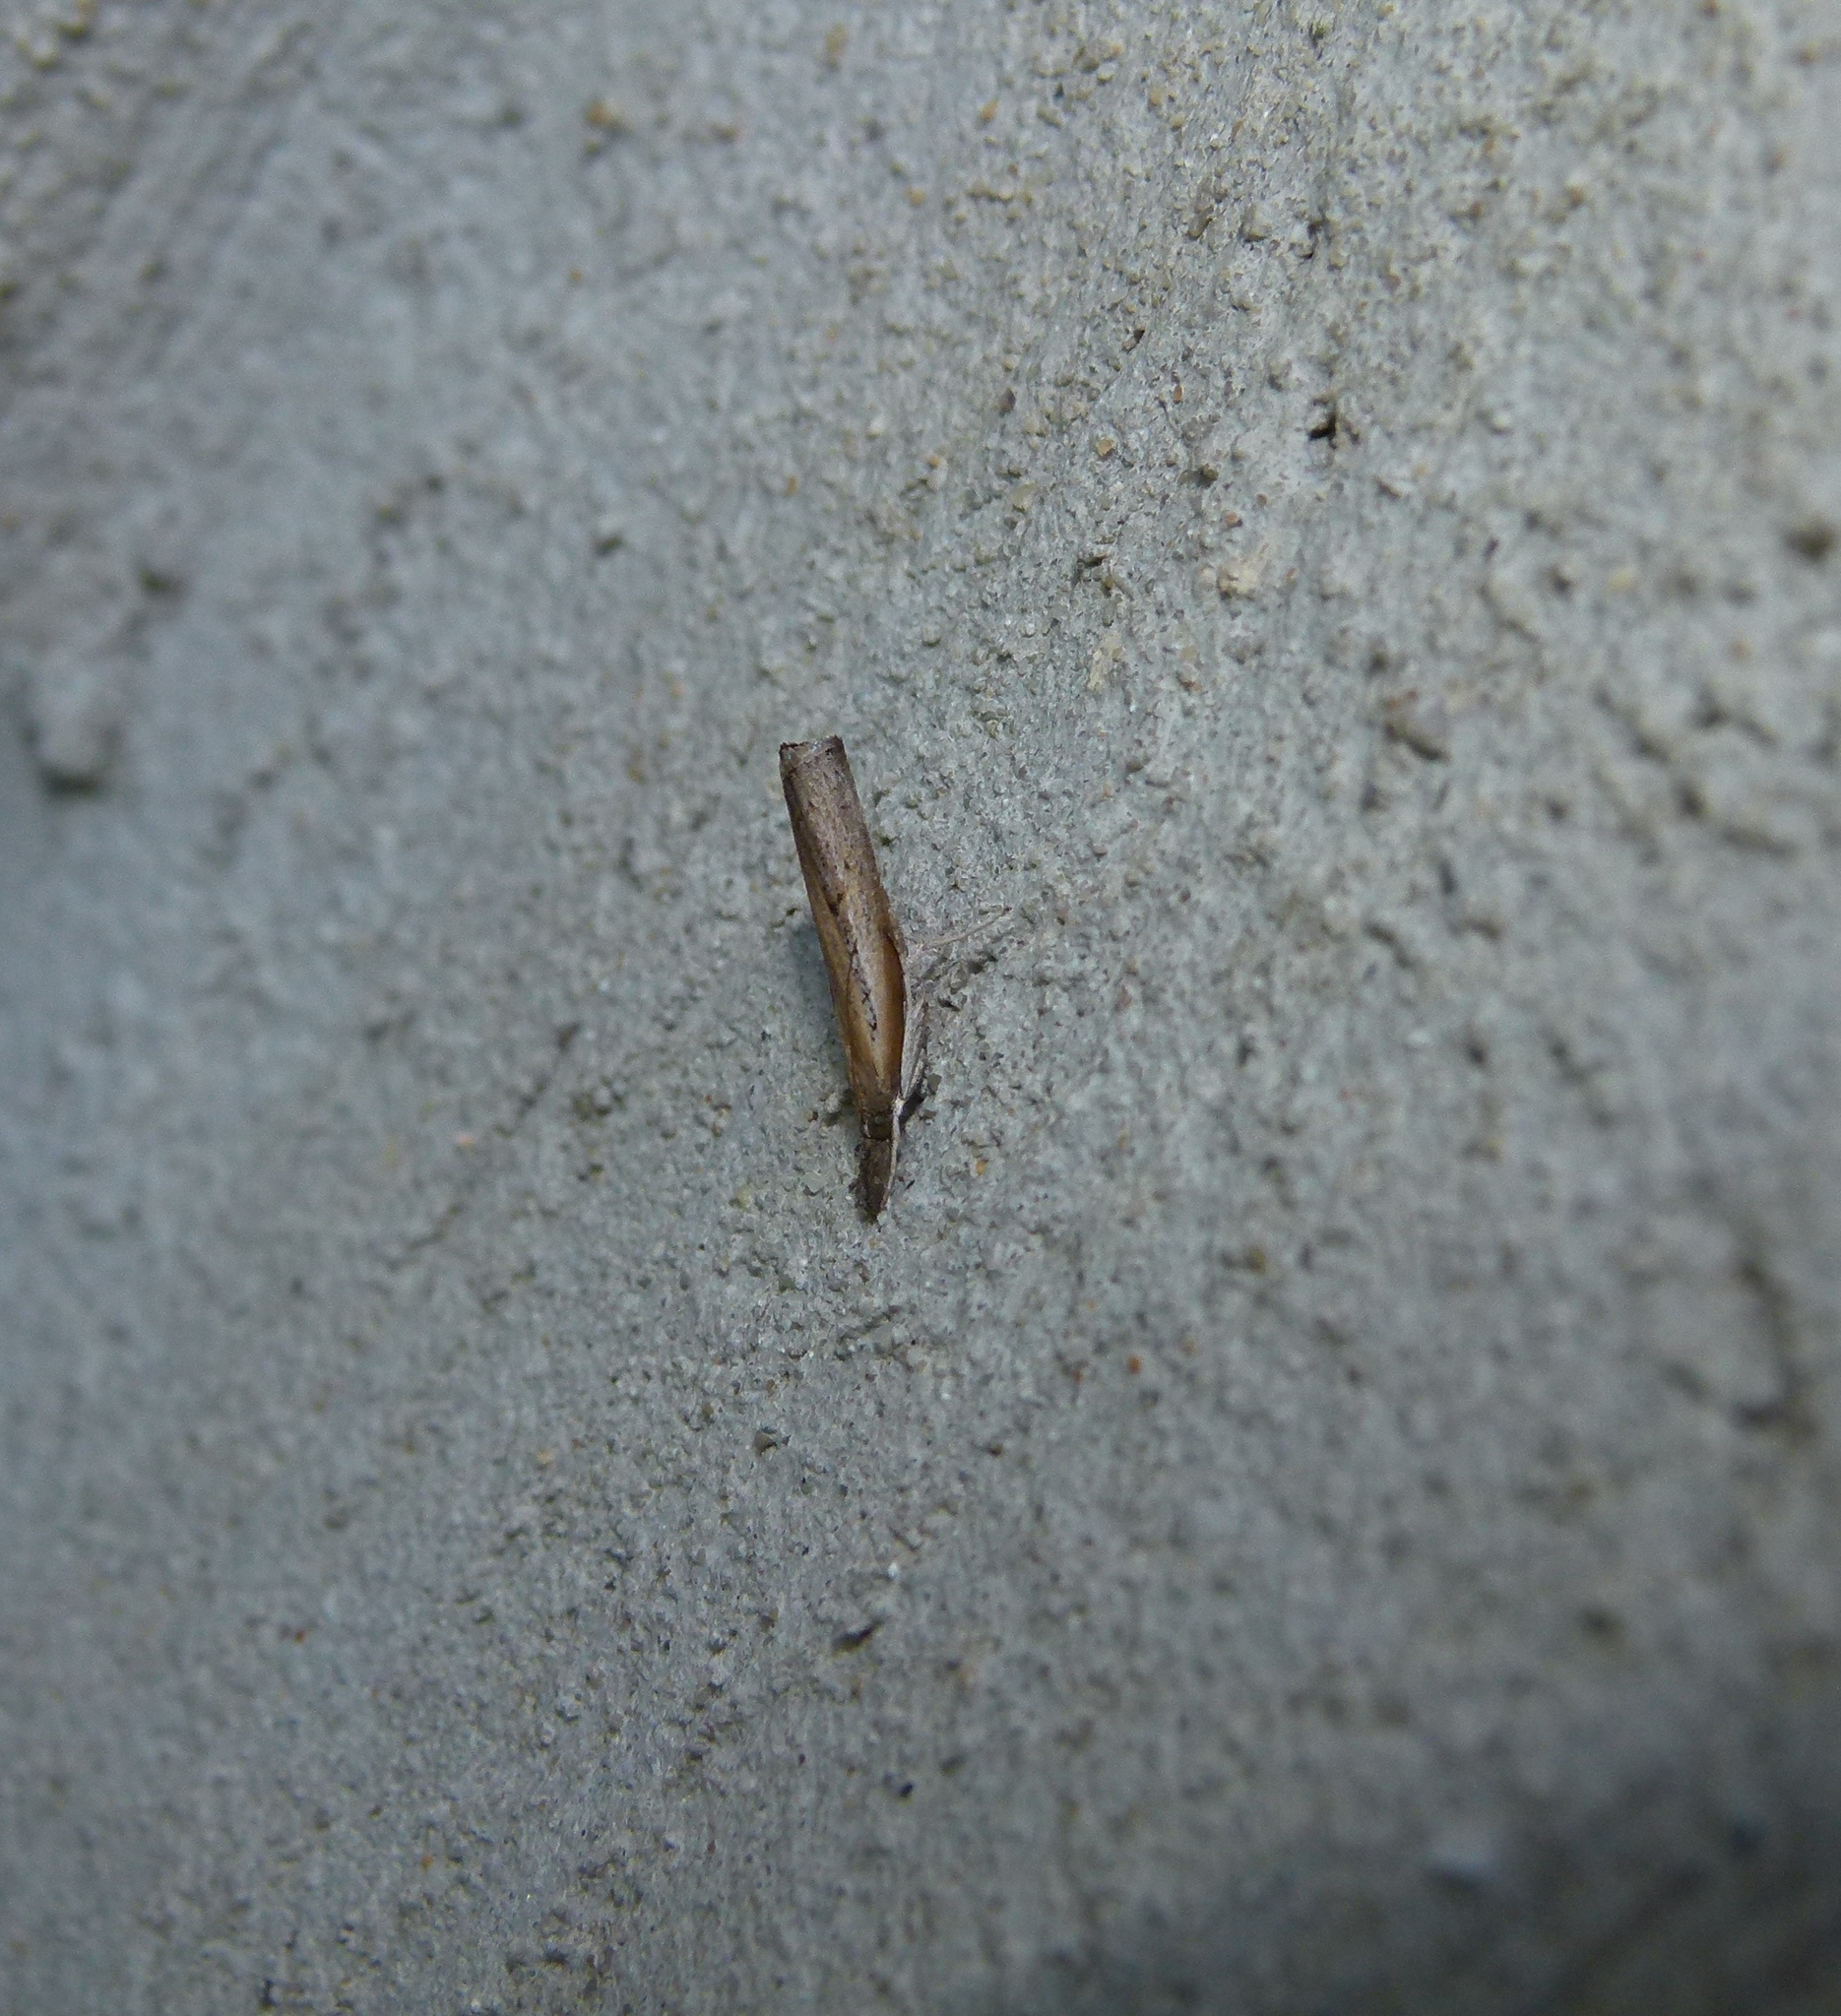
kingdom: Animalia
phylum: Arthropoda
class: Insecta
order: Lepidoptera
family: Crambidae
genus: Fissicrambus
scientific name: Fissicrambus mutabilis
